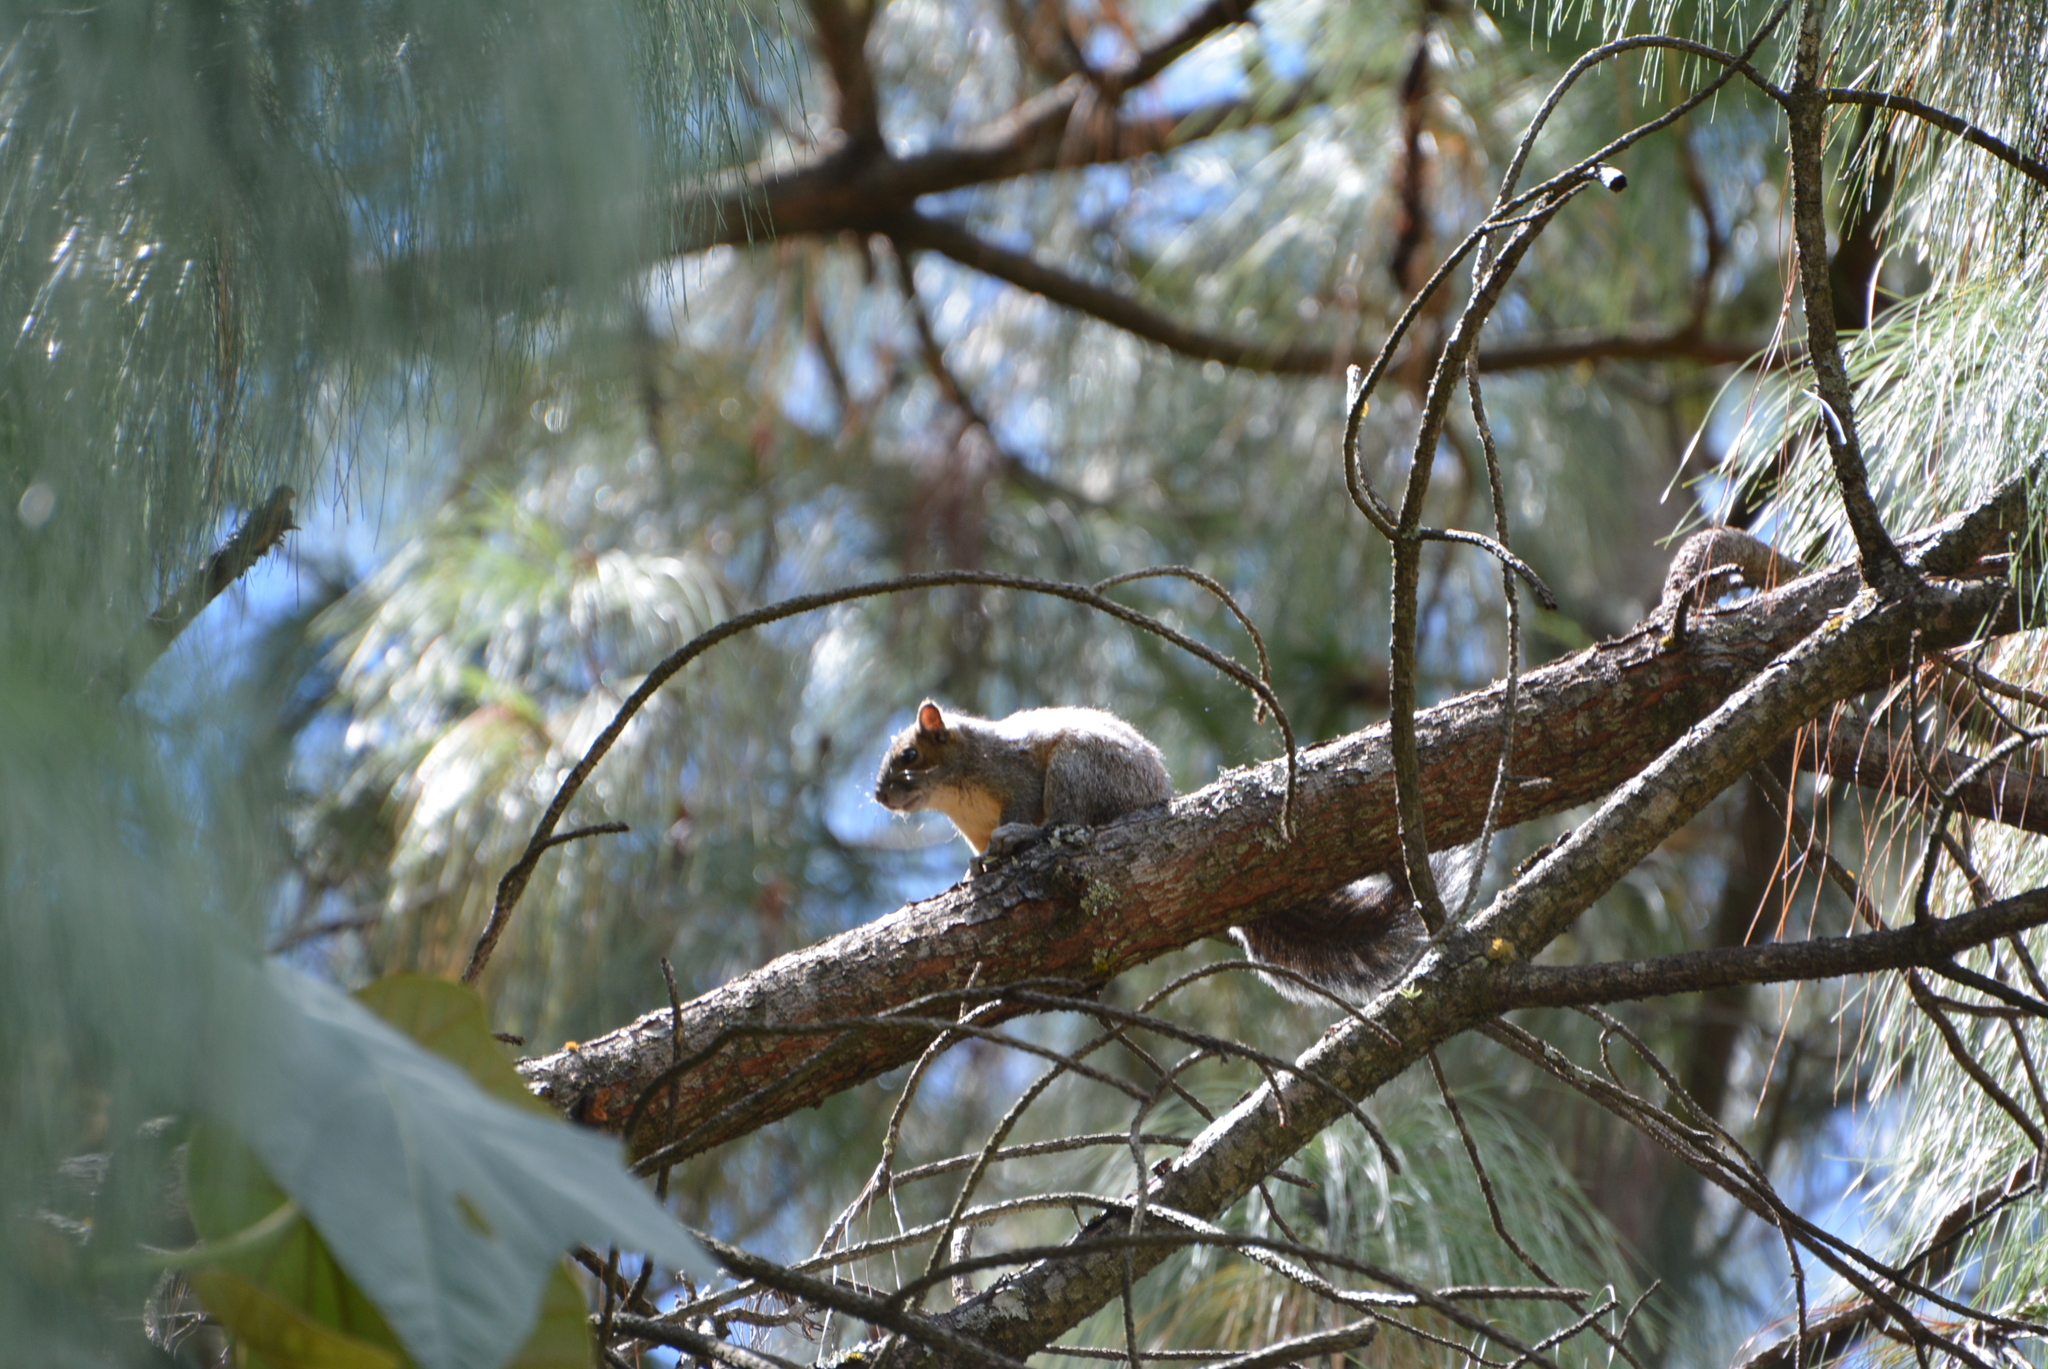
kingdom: Animalia
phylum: Chordata
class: Mammalia
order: Rodentia
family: Sciuridae
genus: Sciurus
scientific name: Sciurus aureogaster
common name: Red-bellied squirrel
